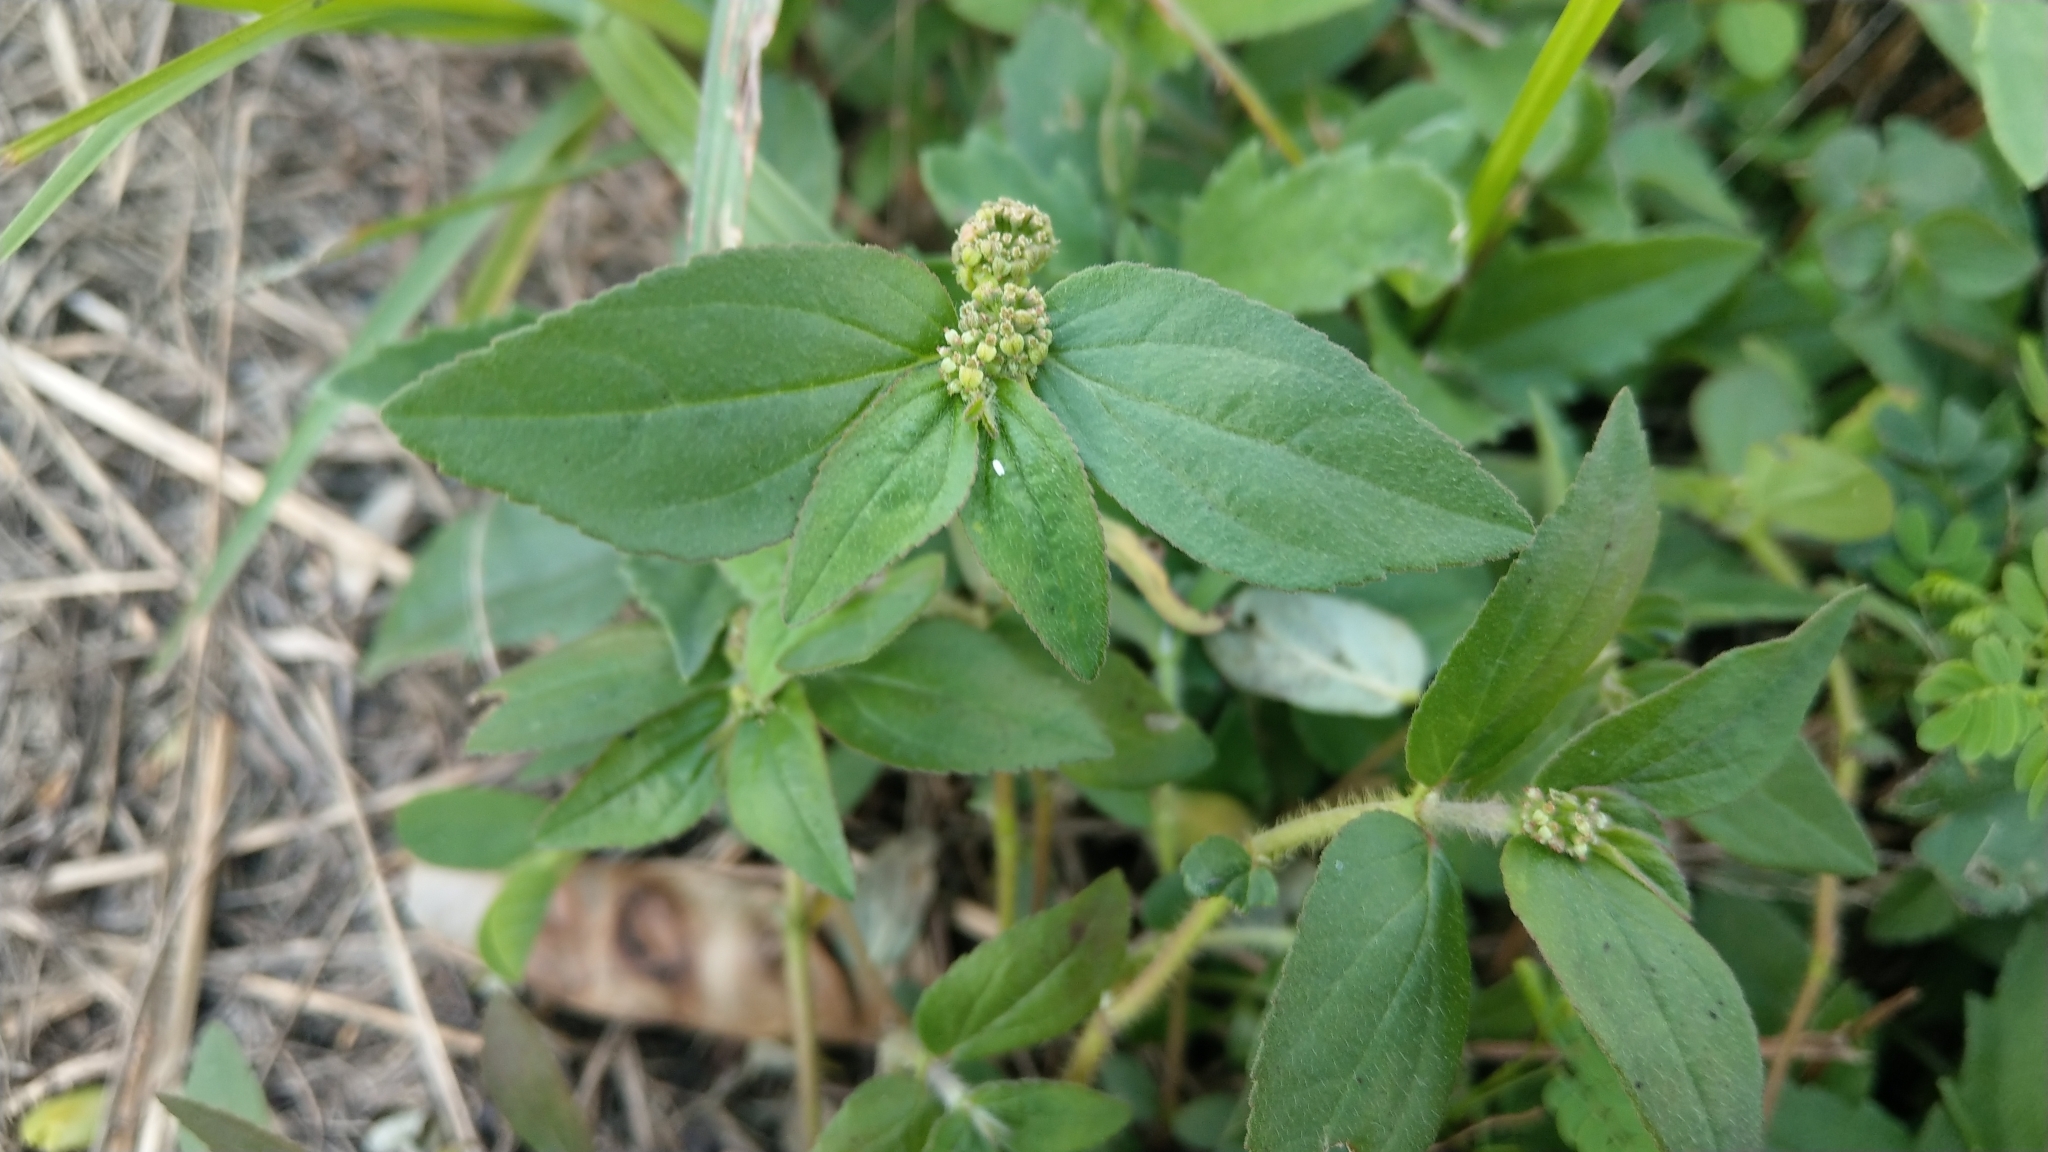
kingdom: Plantae
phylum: Tracheophyta
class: Magnoliopsida
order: Malpighiales
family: Euphorbiaceae
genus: Euphorbia
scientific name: Euphorbia hirta
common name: Pillpod sandmat
